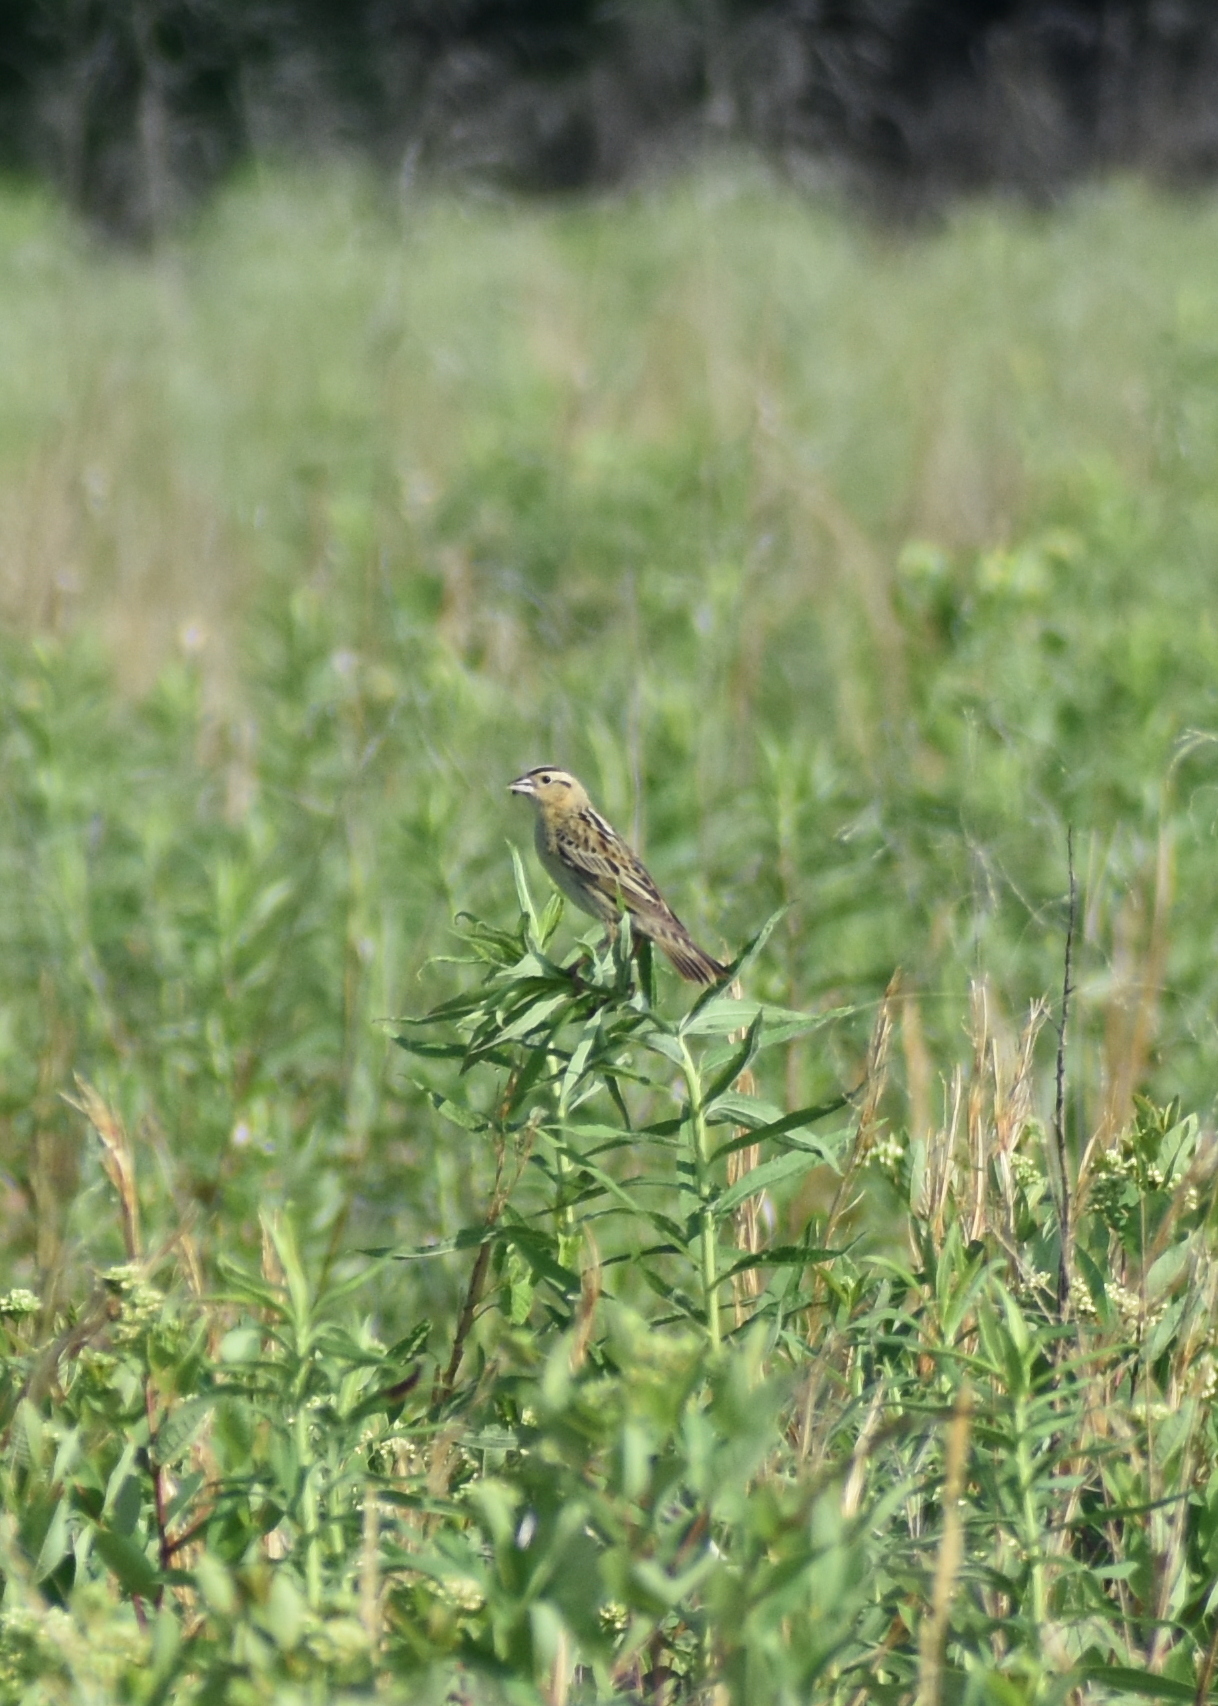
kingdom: Animalia
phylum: Chordata
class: Aves
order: Passeriformes
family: Icteridae
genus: Dolichonyx
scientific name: Dolichonyx oryzivorus
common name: Bobolink
